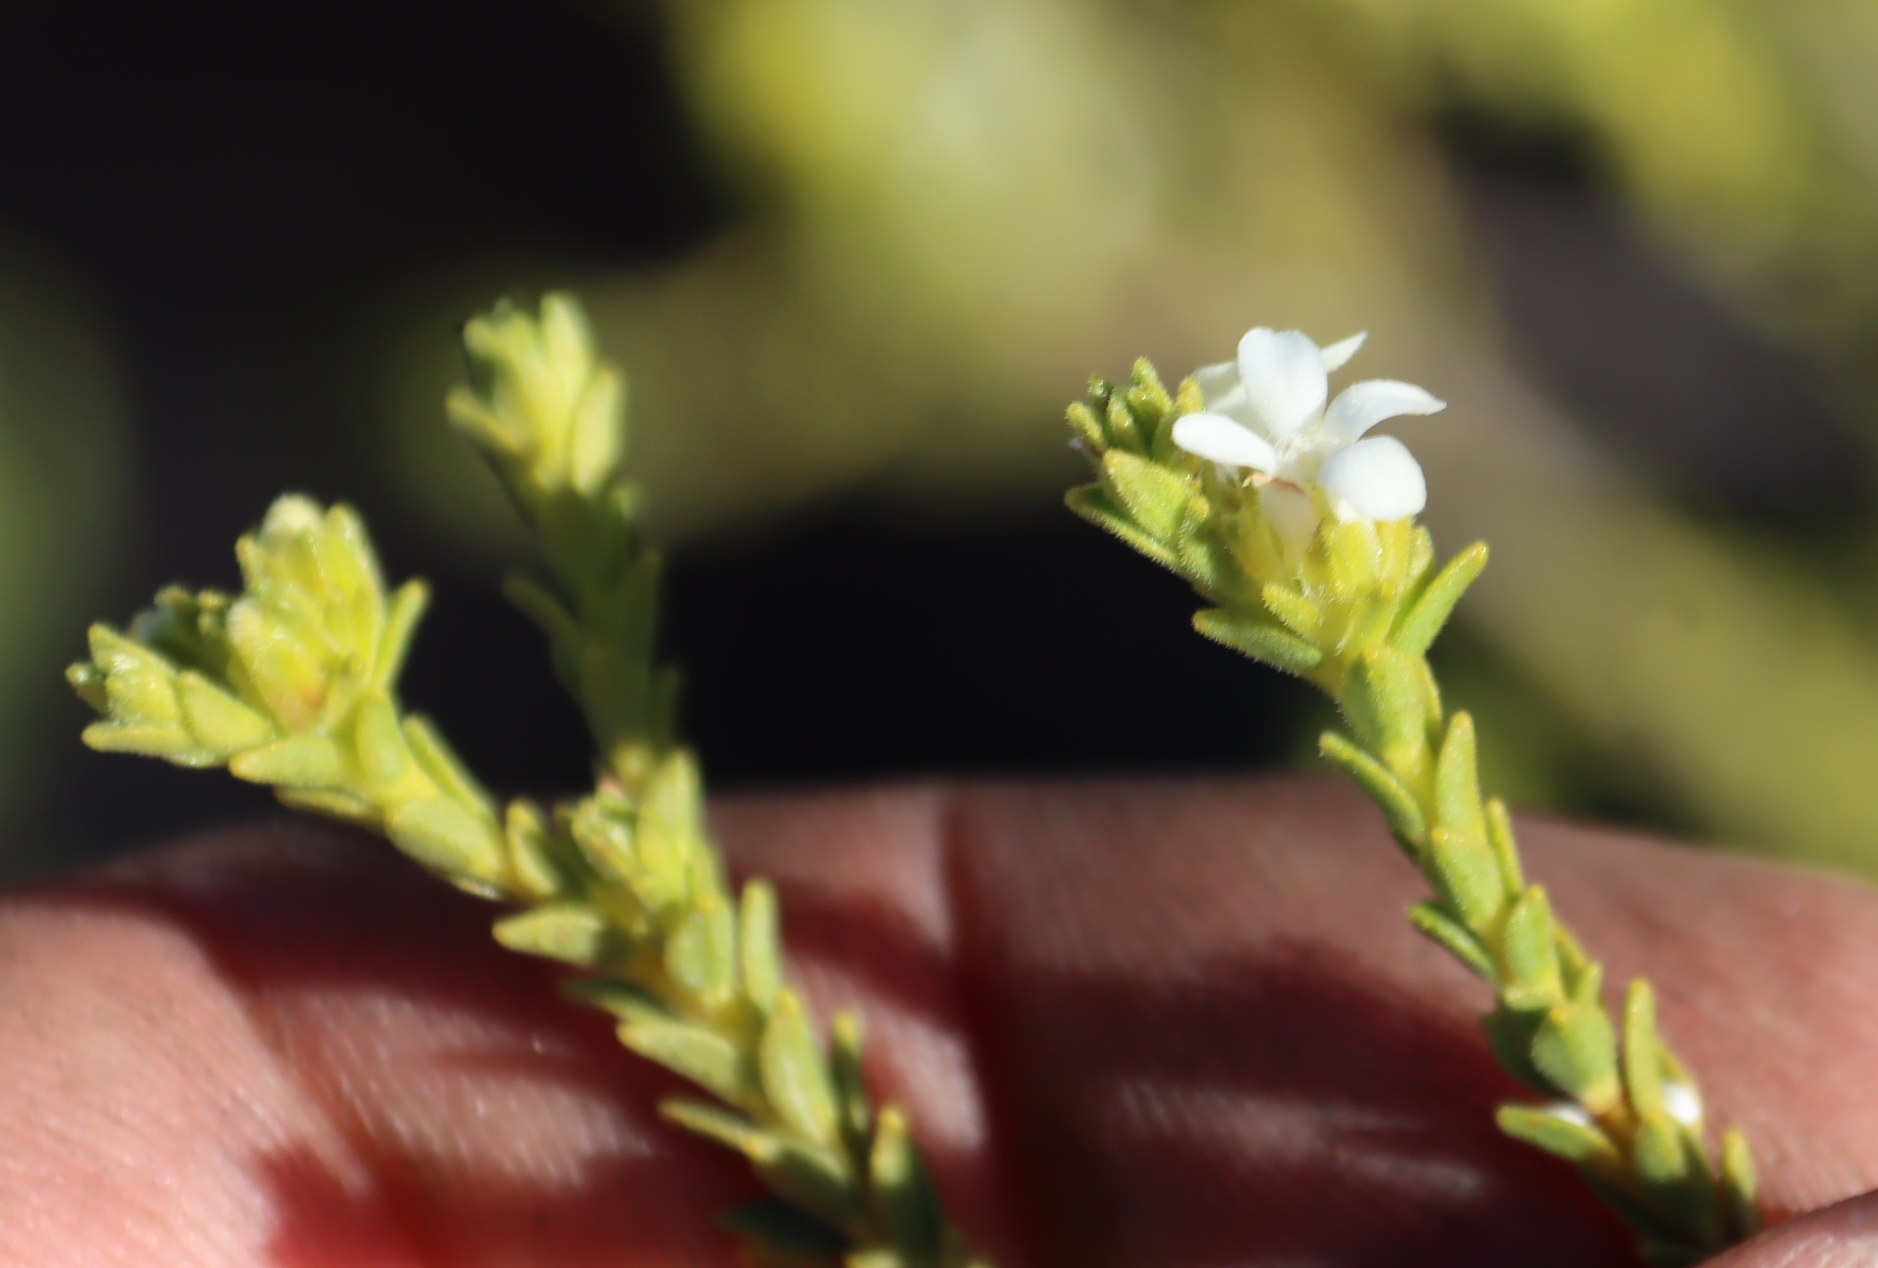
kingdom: Plantae
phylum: Tracheophyta
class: Magnoliopsida
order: Sapindales
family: Rutaceae
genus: Euchaetis
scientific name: Euchaetis vallis-simiae
